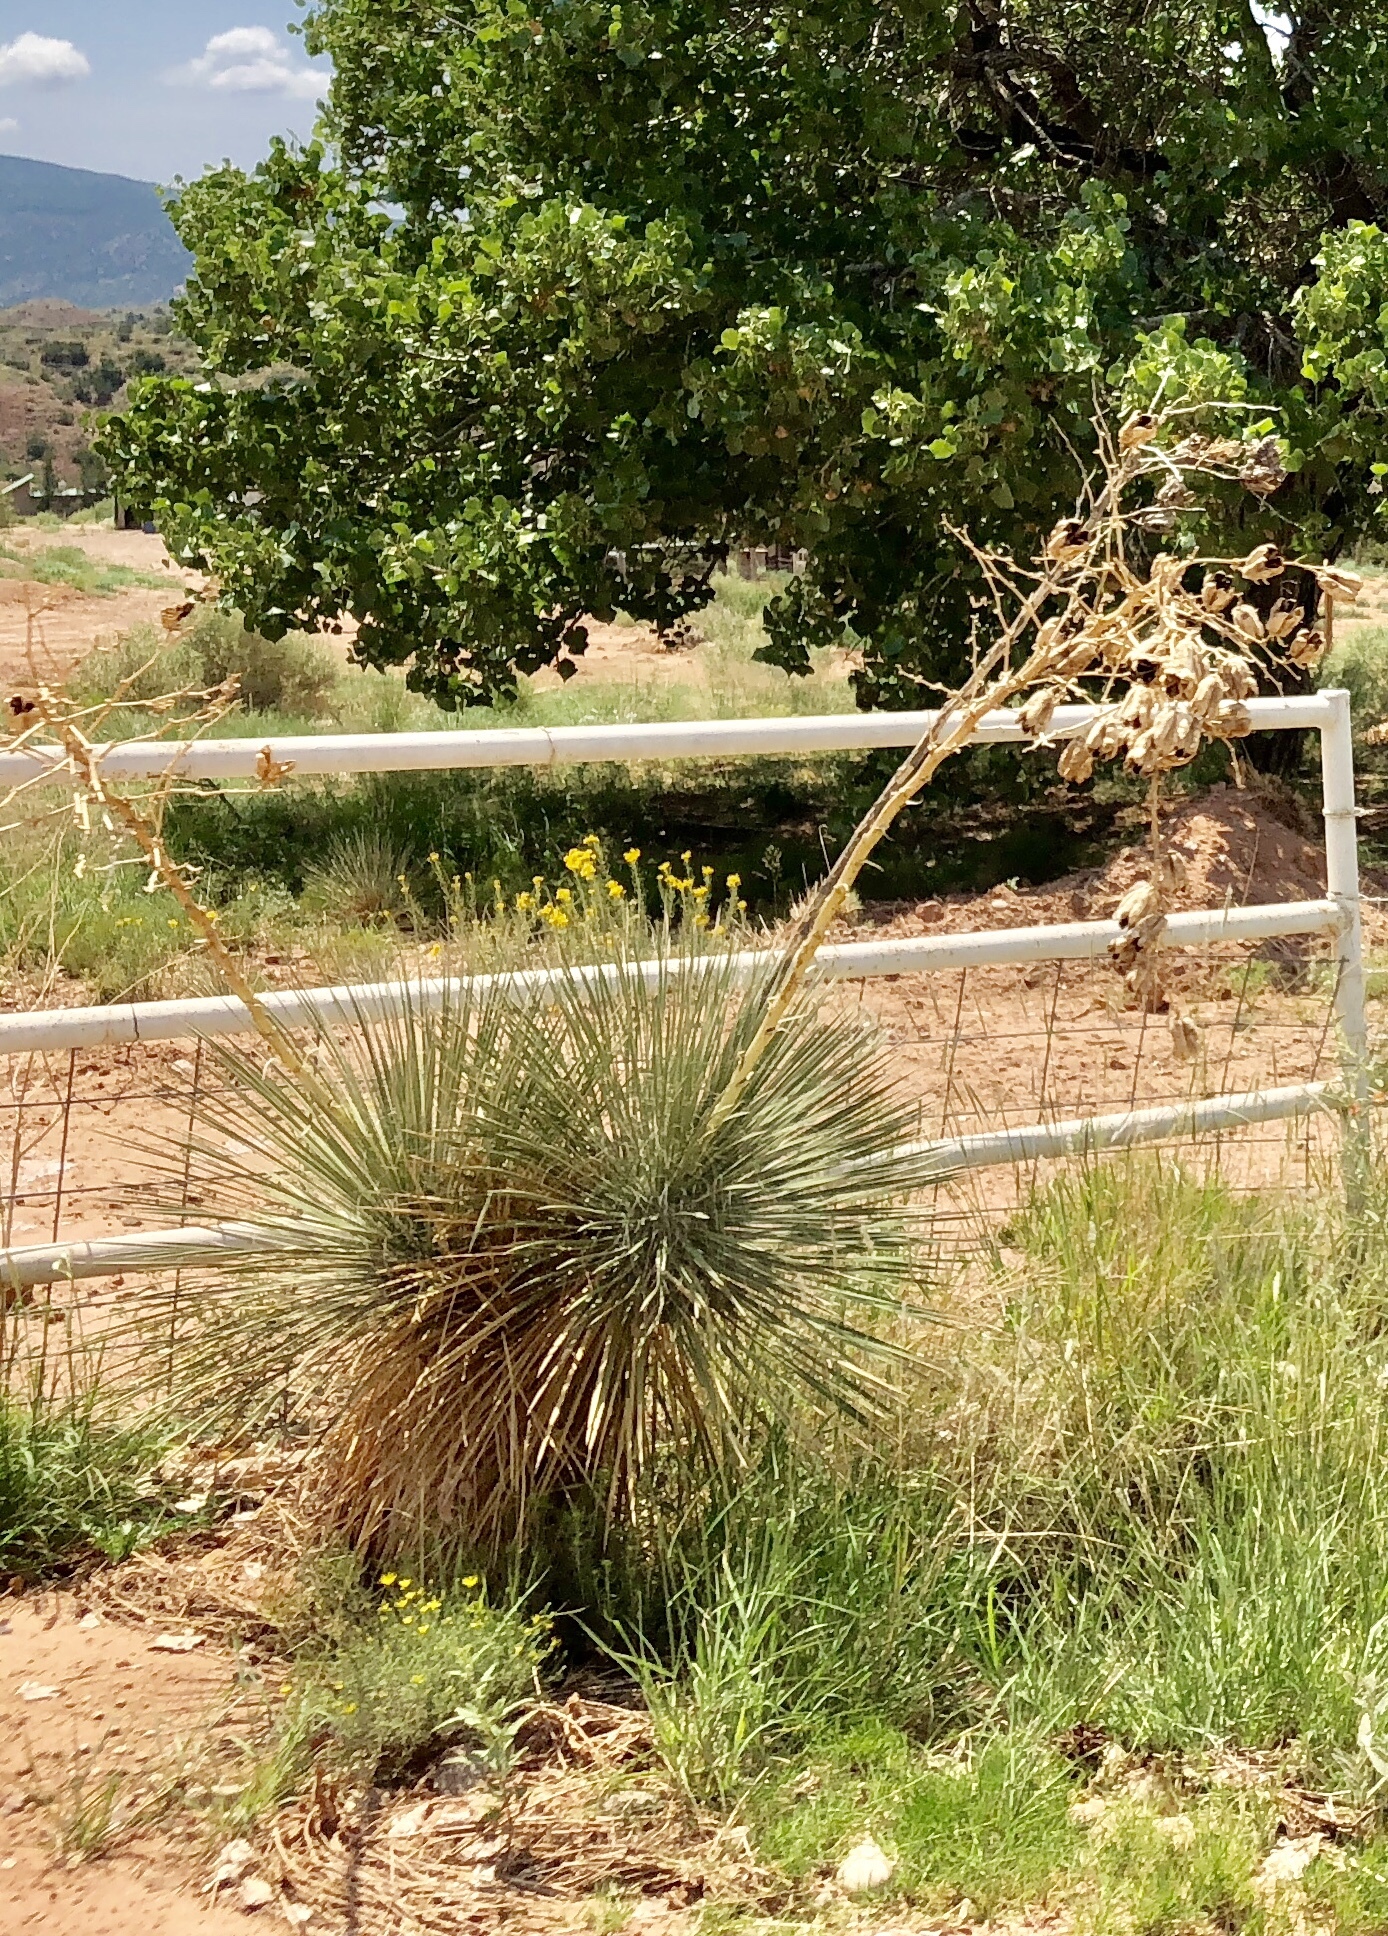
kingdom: Plantae
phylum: Tracheophyta
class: Liliopsida
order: Asparagales
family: Asparagaceae
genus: Yucca
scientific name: Yucca elata
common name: Palmella
